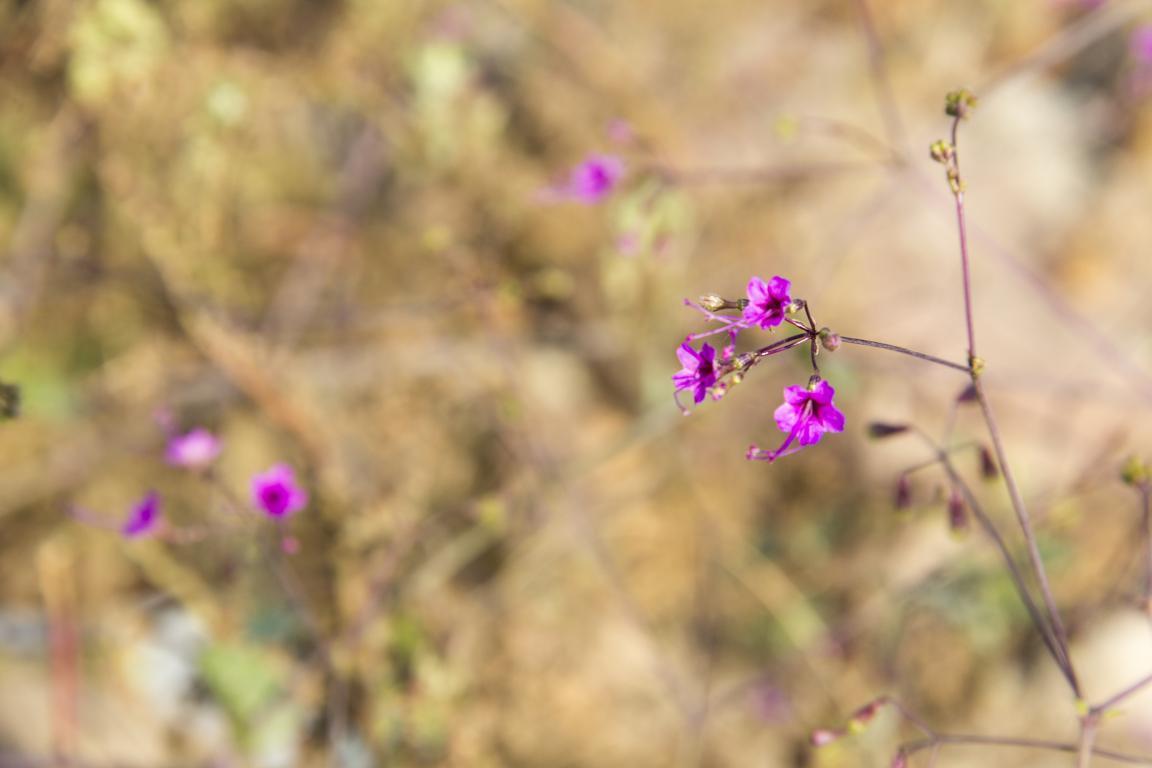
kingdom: Plantae
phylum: Tracheophyta
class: Magnoliopsida
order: Caryophyllales
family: Nyctaginaceae
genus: Commicarpus
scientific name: Commicarpus tuberosus
